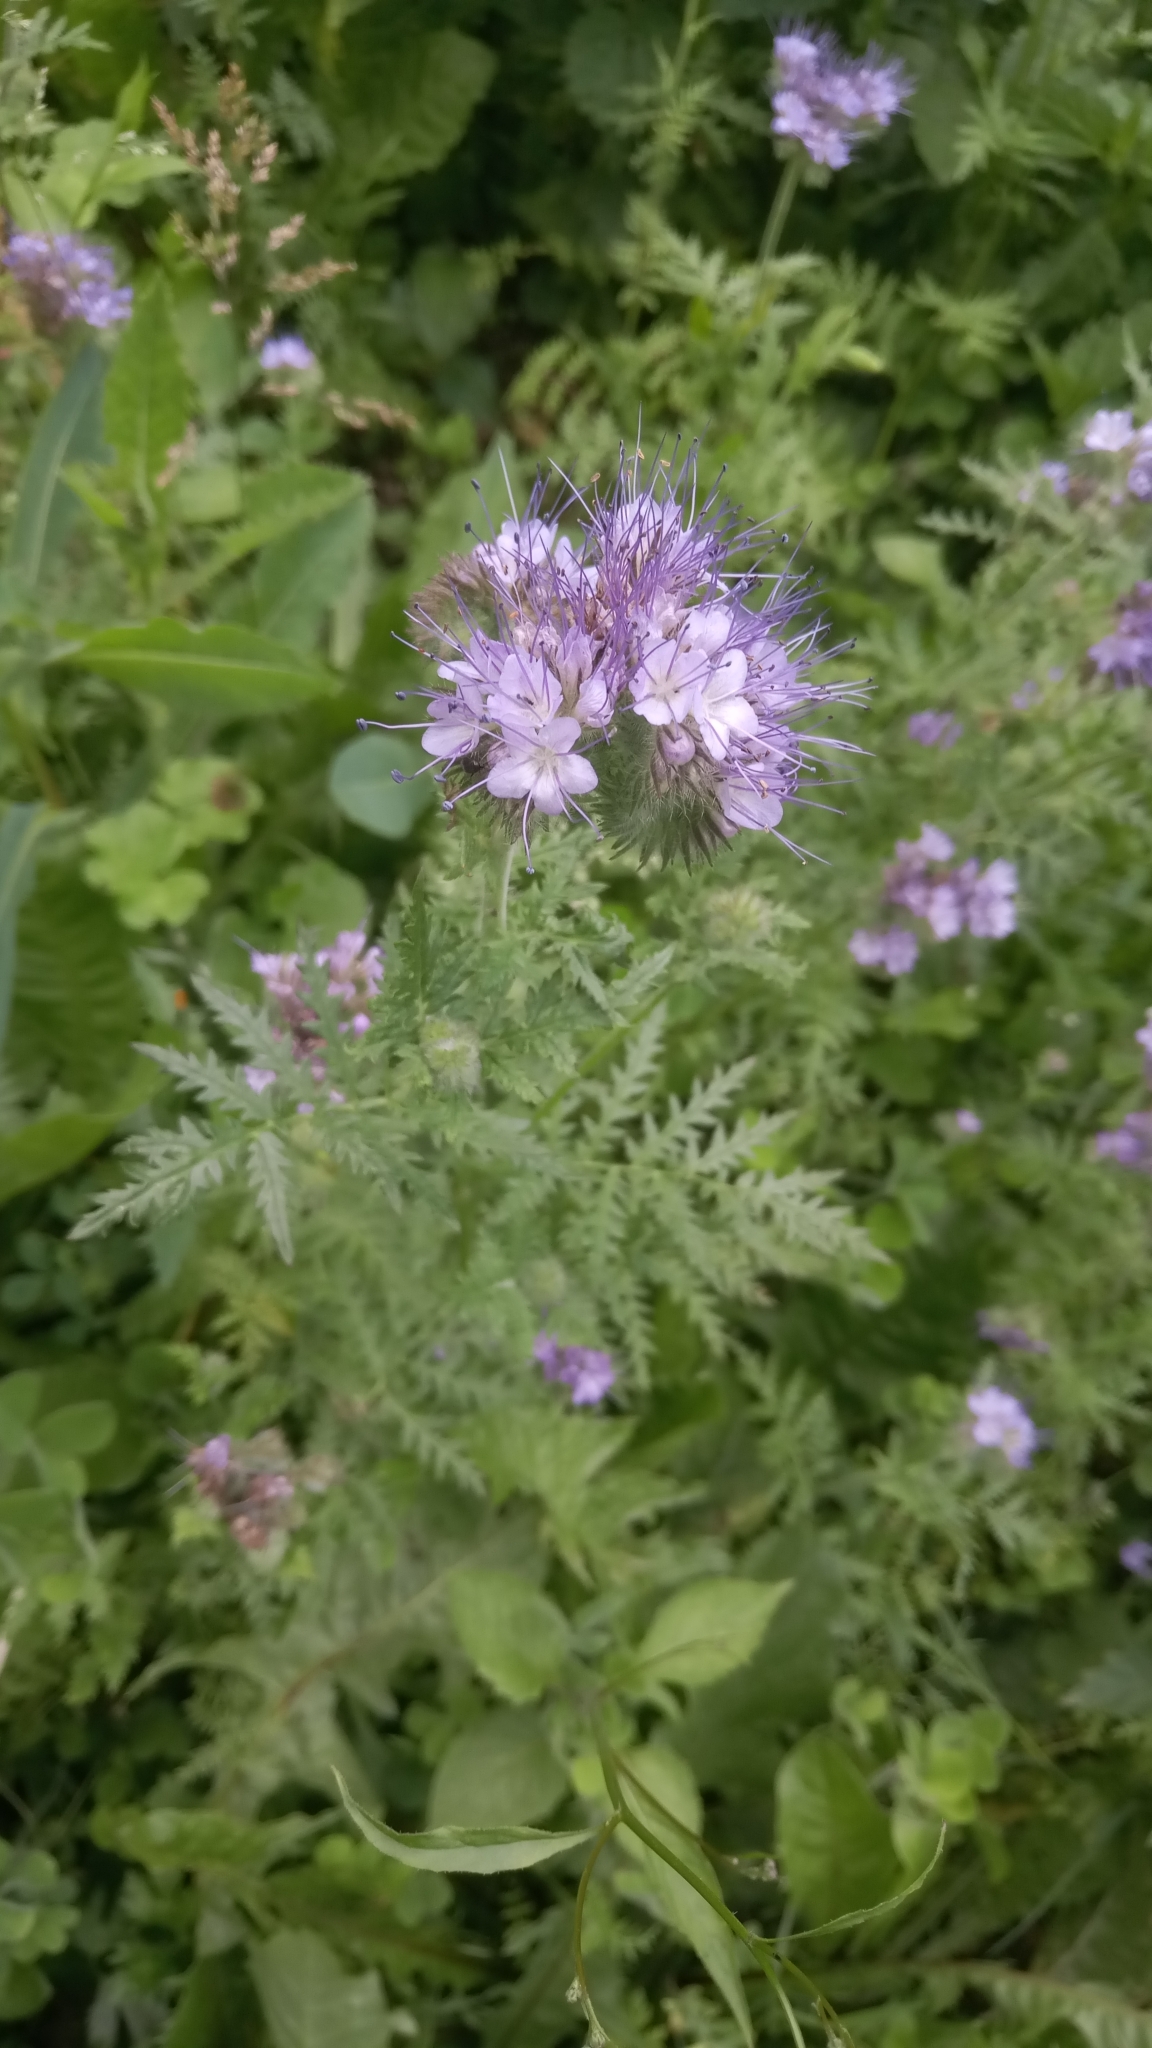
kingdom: Plantae
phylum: Tracheophyta
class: Magnoliopsida
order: Boraginales
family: Hydrophyllaceae
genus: Phacelia
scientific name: Phacelia tanacetifolia
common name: Phacelia
